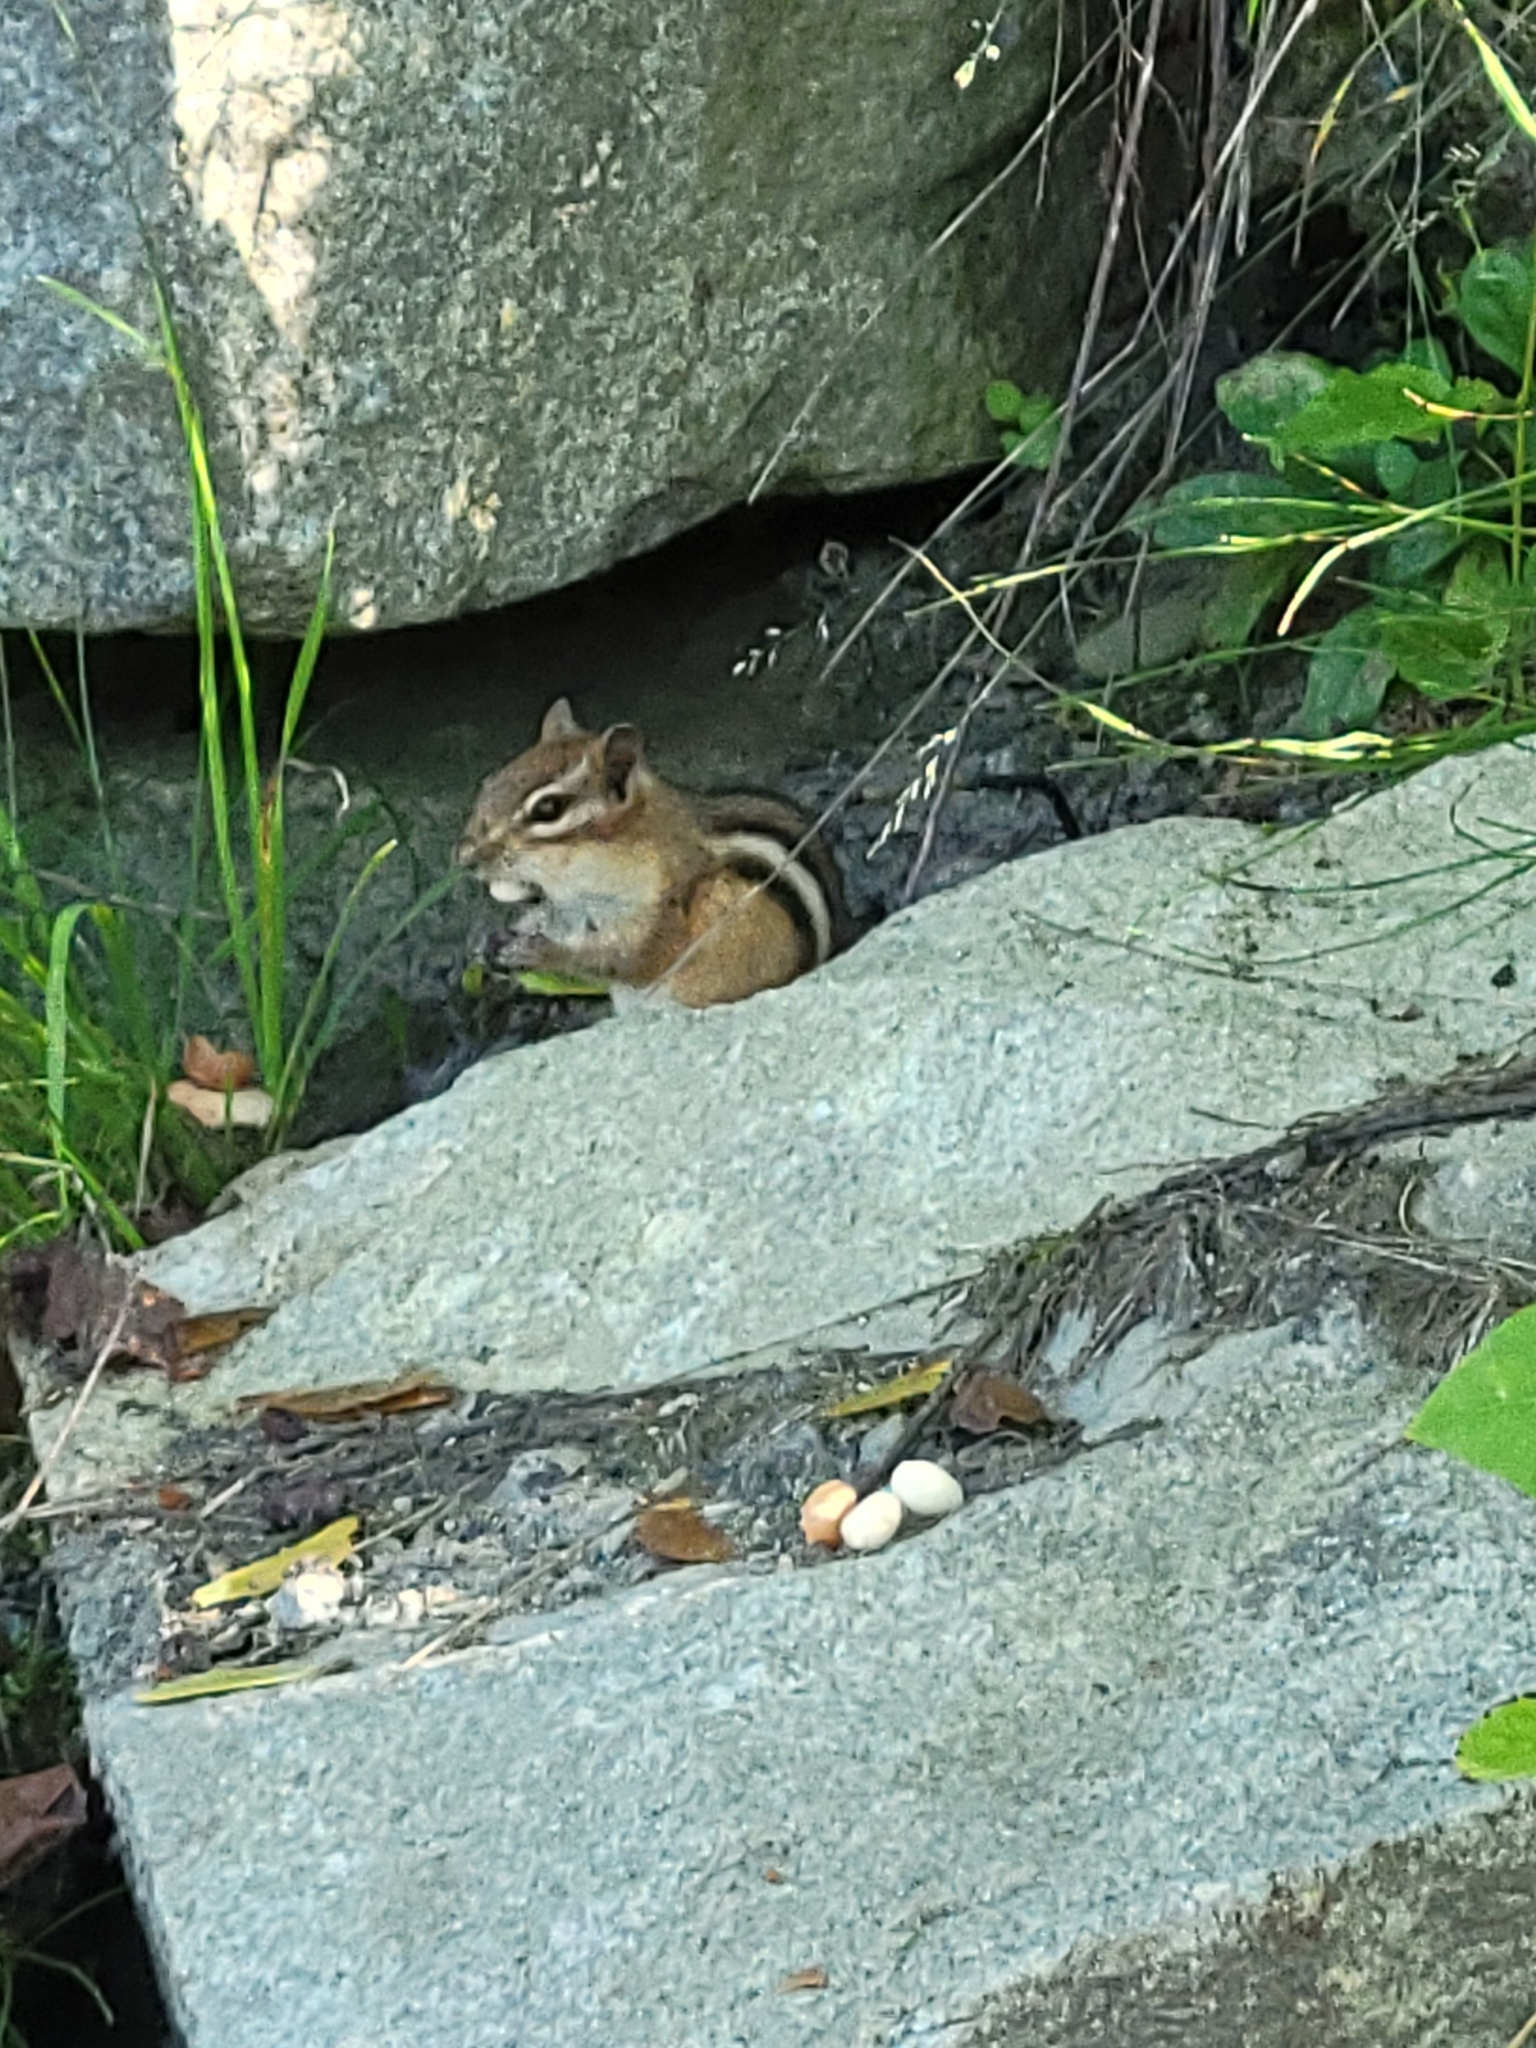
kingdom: Animalia
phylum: Chordata
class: Mammalia
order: Rodentia
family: Sciuridae
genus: Tamias
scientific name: Tamias striatus
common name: Eastern chipmunk
